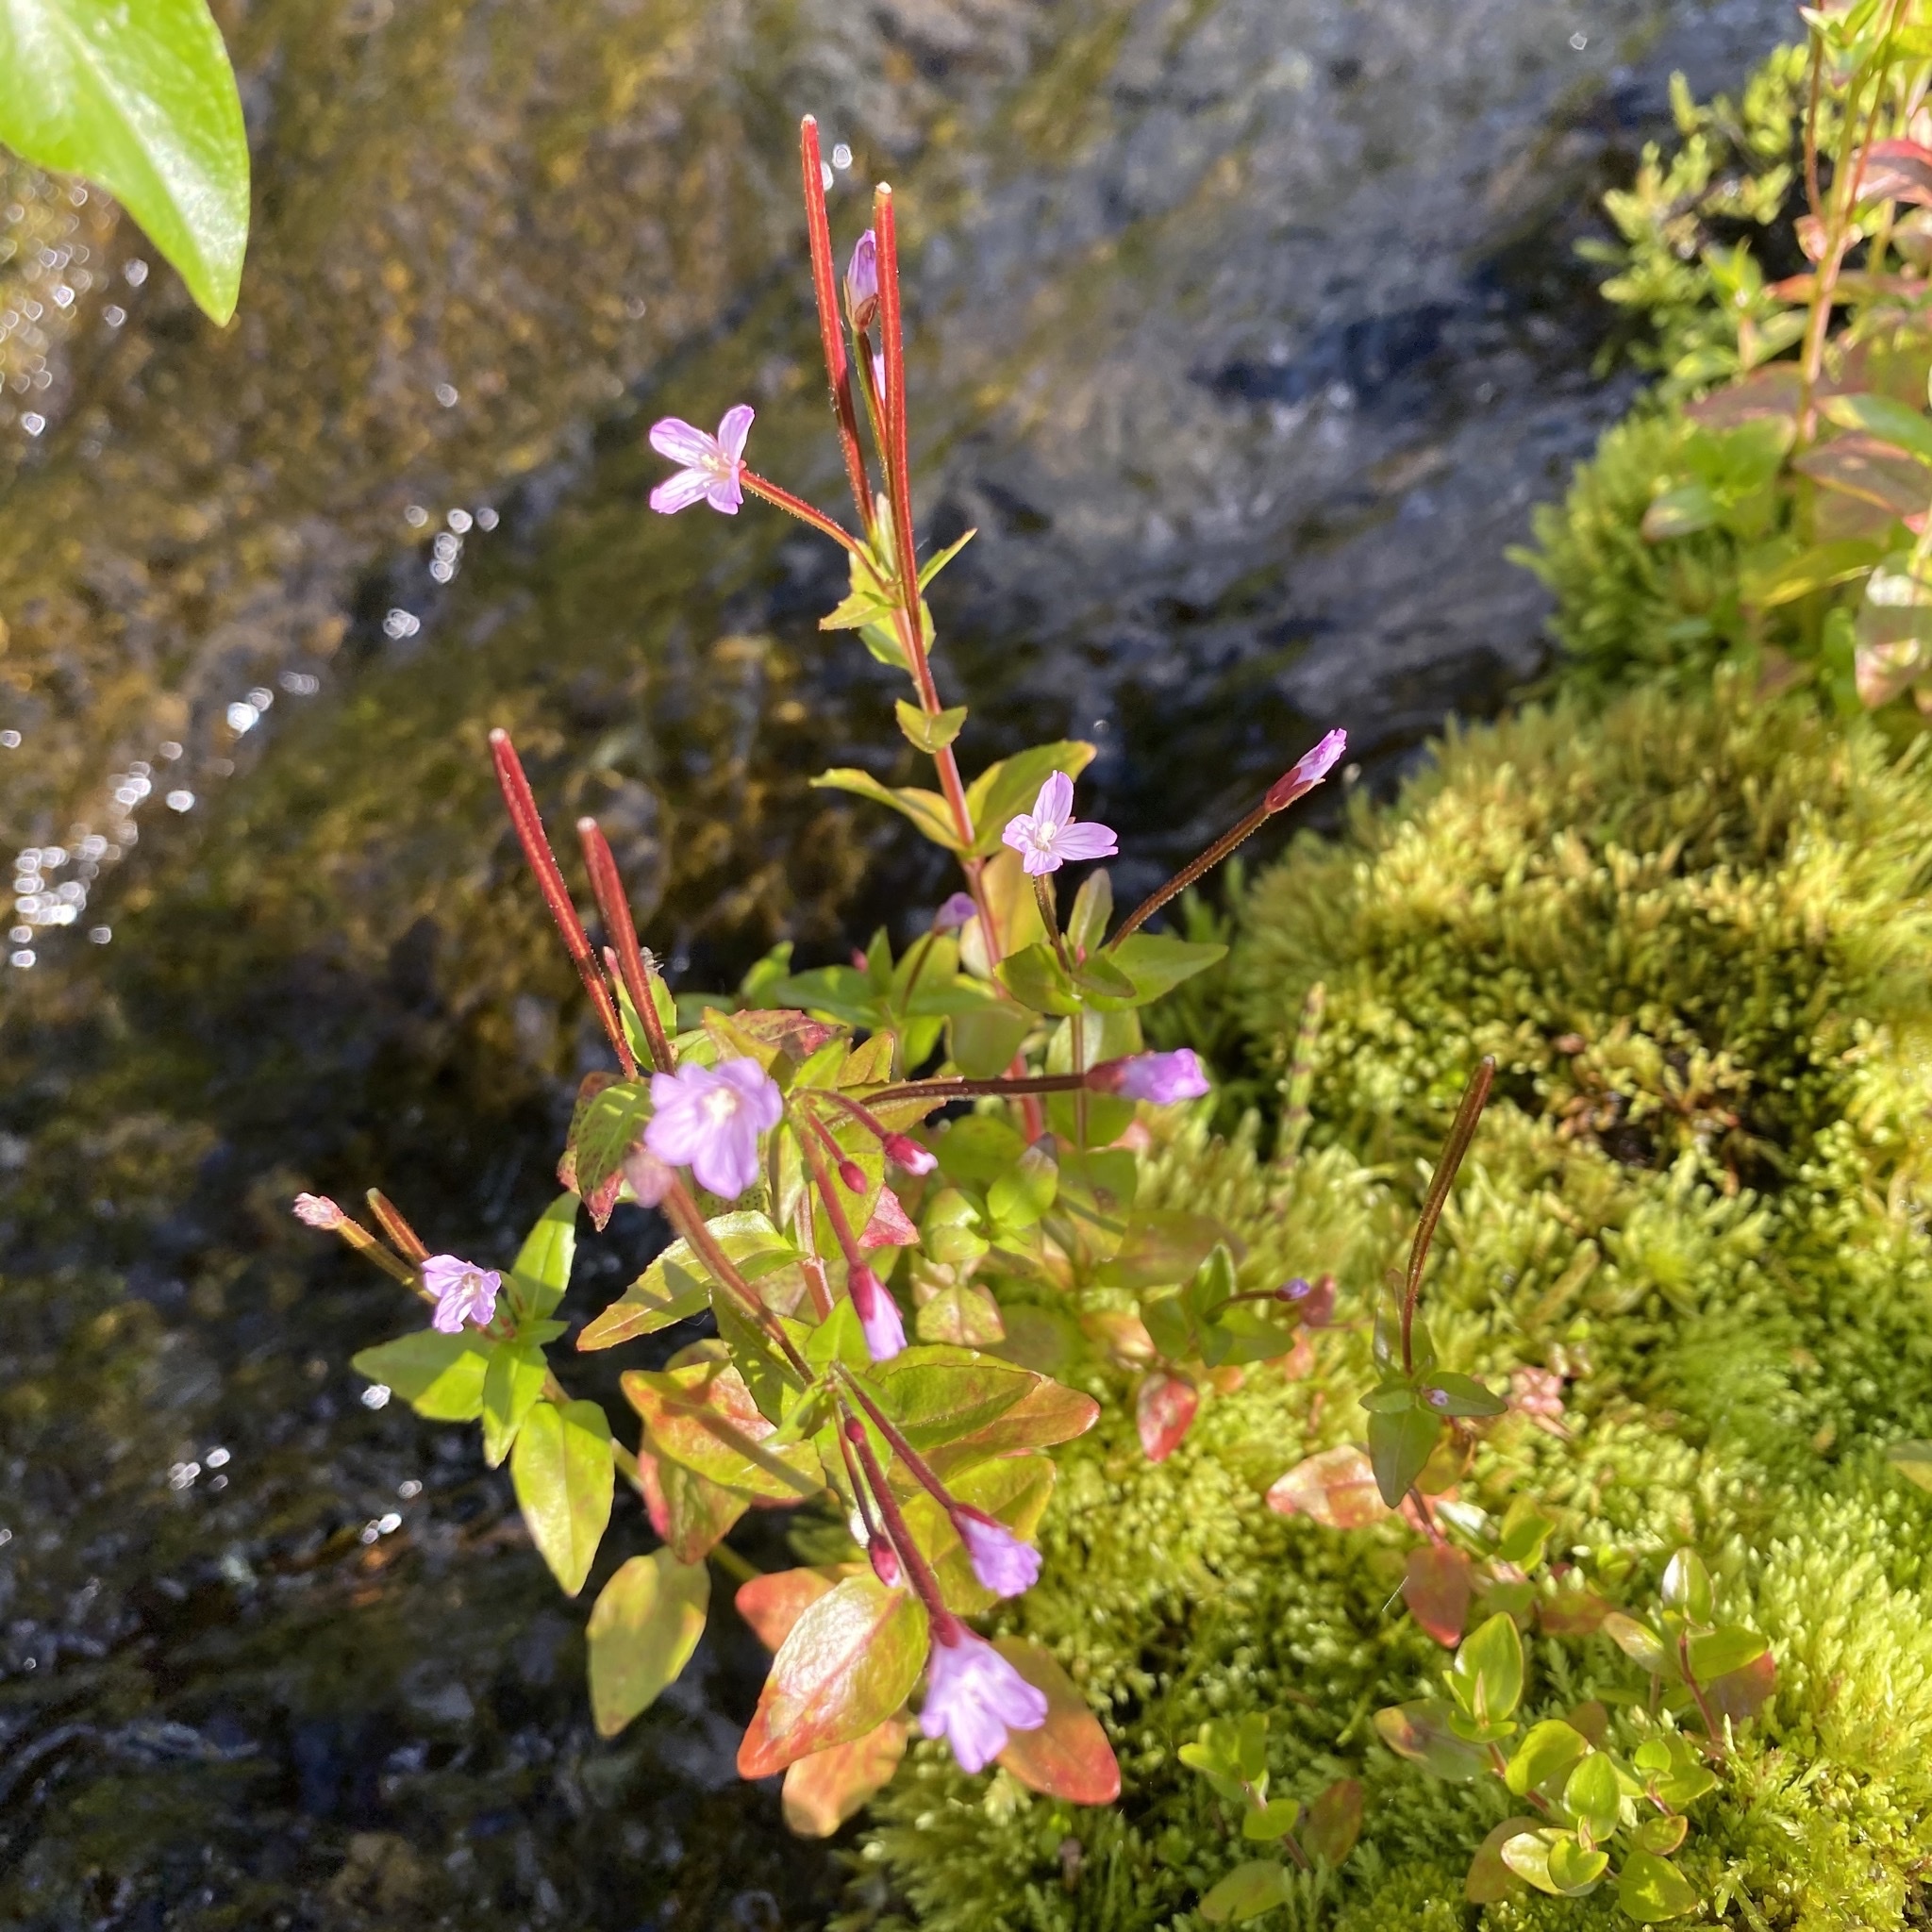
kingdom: Plantae
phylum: Tracheophyta
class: Magnoliopsida
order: Myrtales
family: Onagraceae
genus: Epilobium
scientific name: Epilobium hornemannii
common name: Hornemann's willowherb
